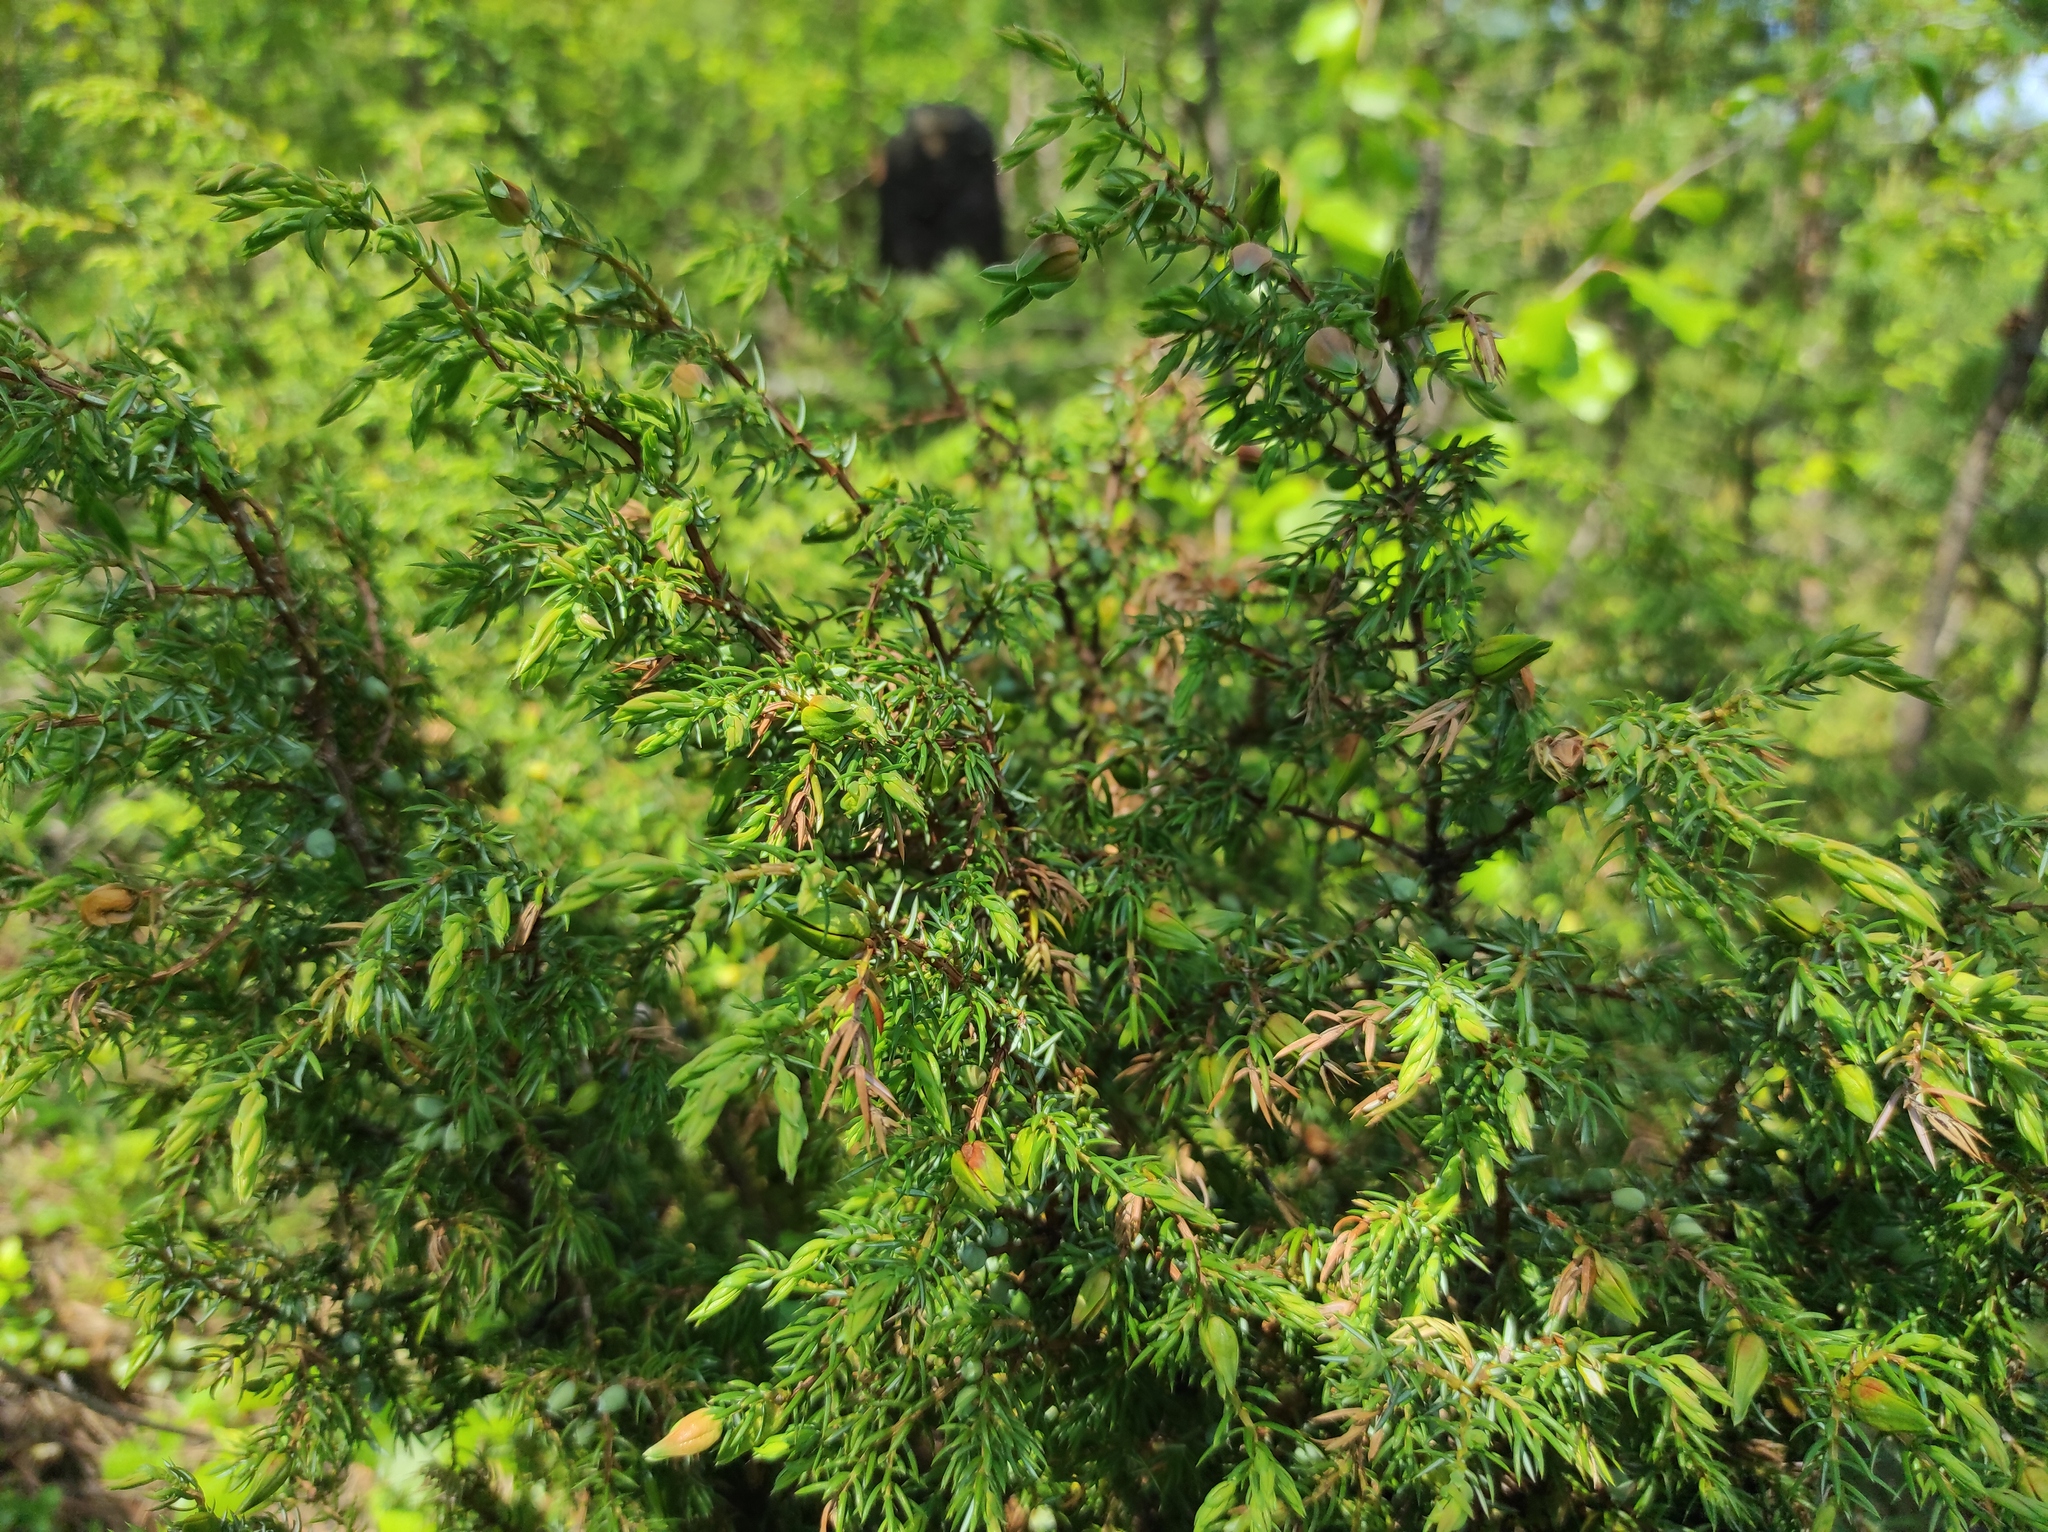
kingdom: Plantae
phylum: Tracheophyta
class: Pinopsida
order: Pinales
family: Cupressaceae
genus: Juniperus
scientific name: Juniperus communis
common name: Common juniper
